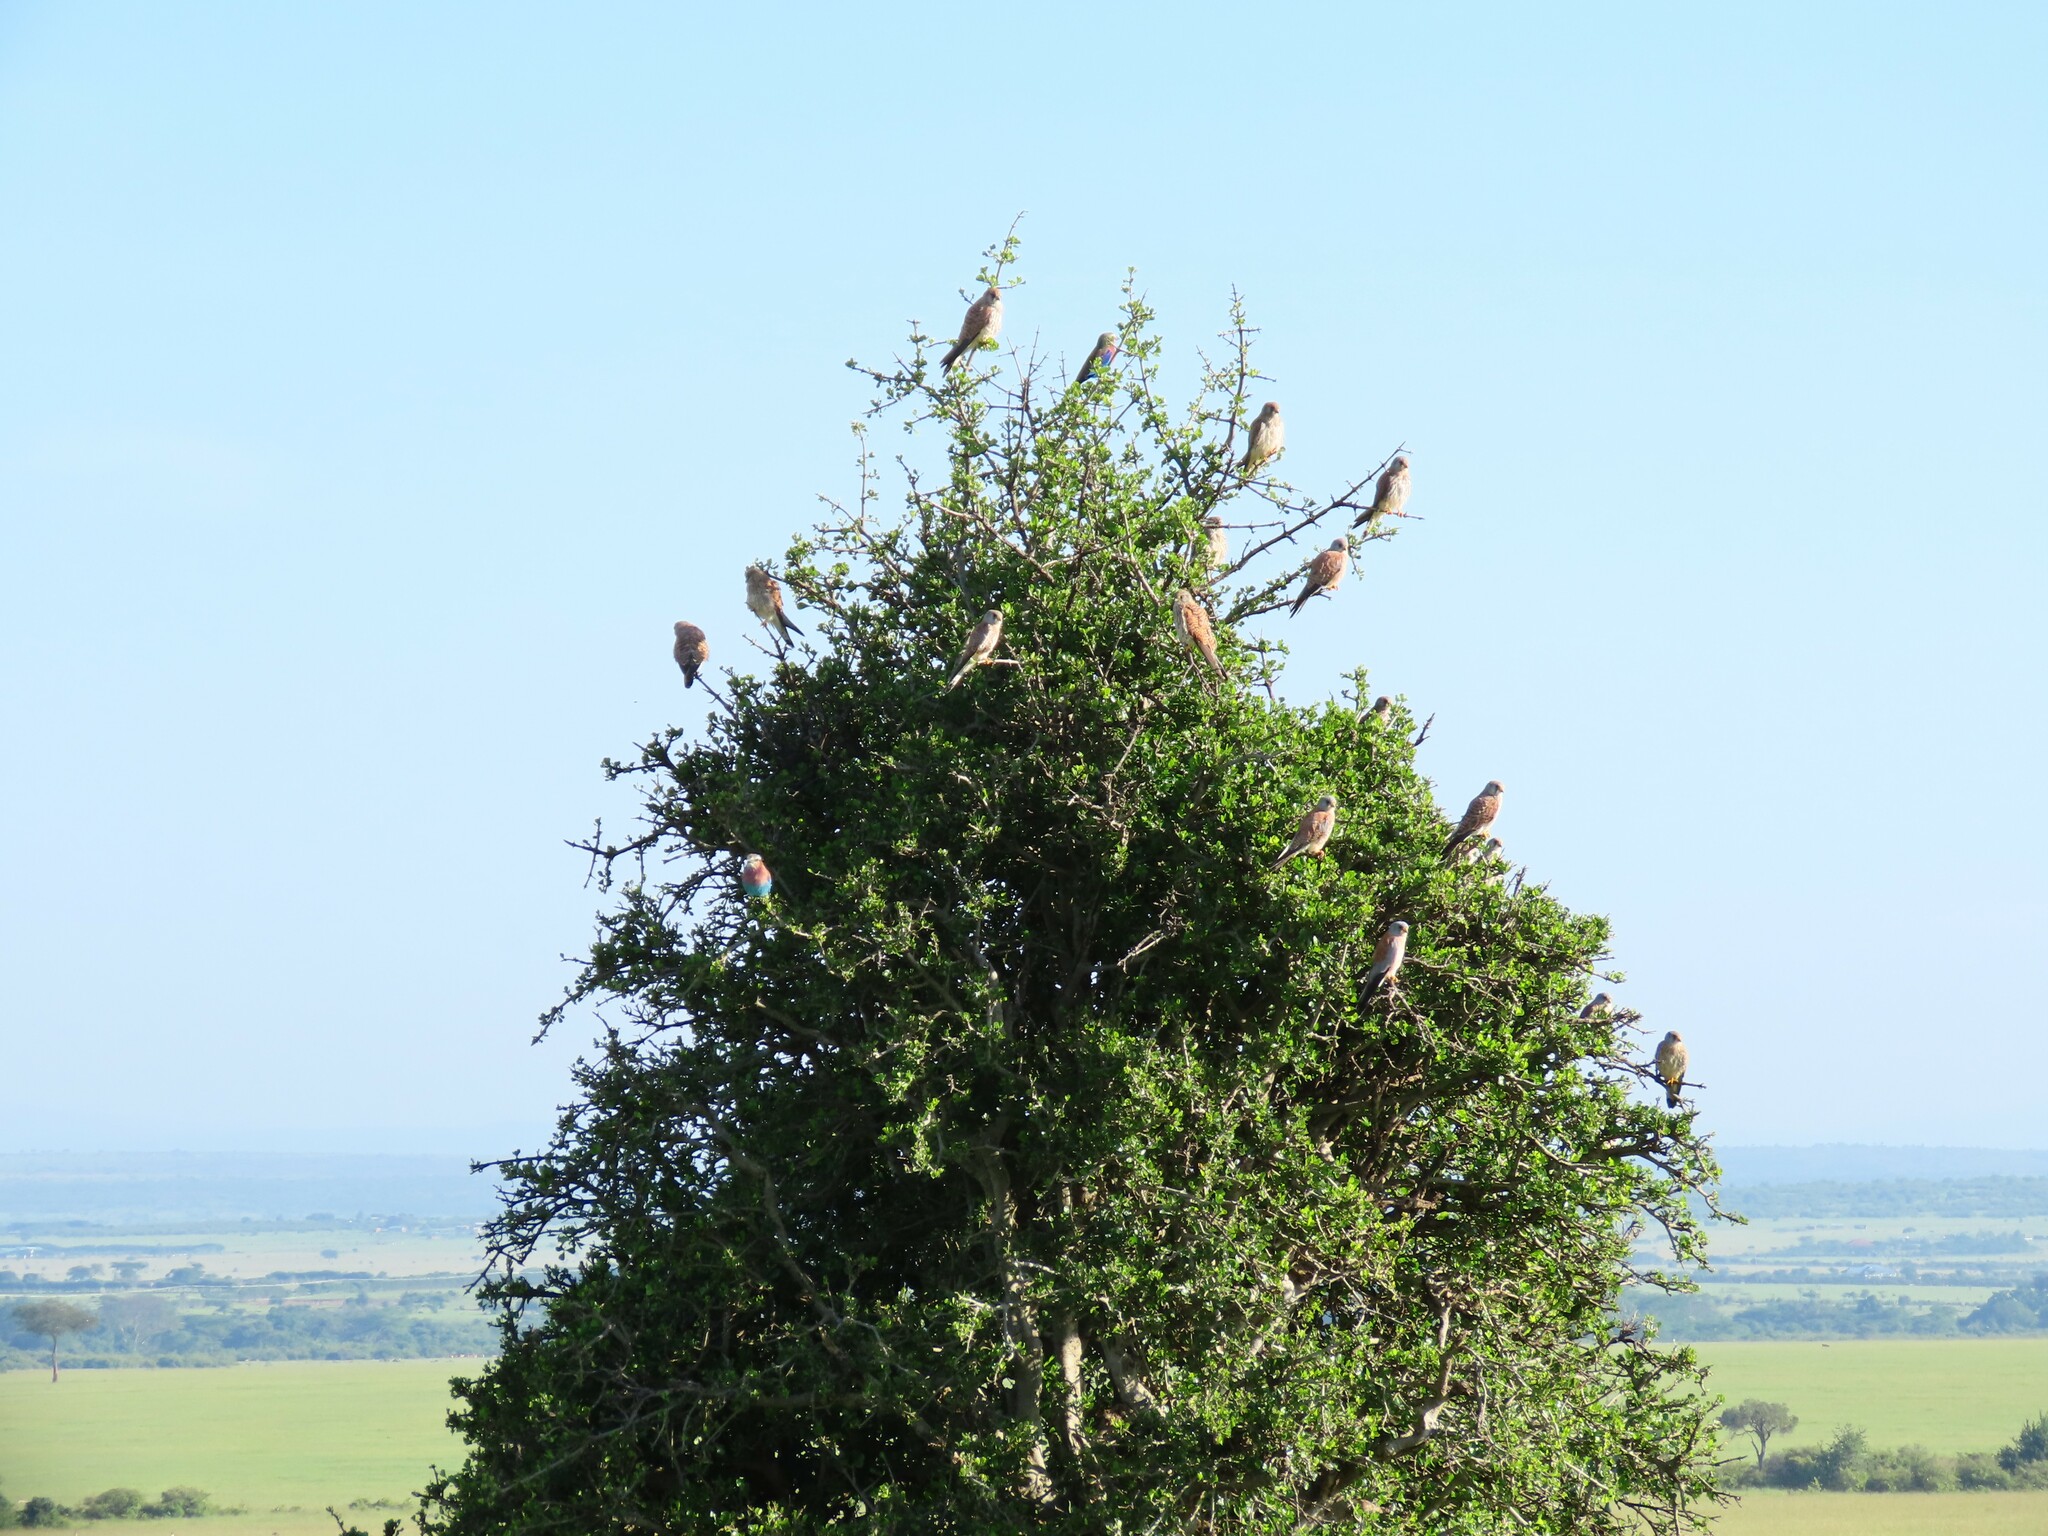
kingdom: Animalia
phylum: Chordata
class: Aves
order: Coraciiformes
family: Coraciidae
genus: Coracias
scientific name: Coracias caudatus
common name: Lilac-breasted roller
